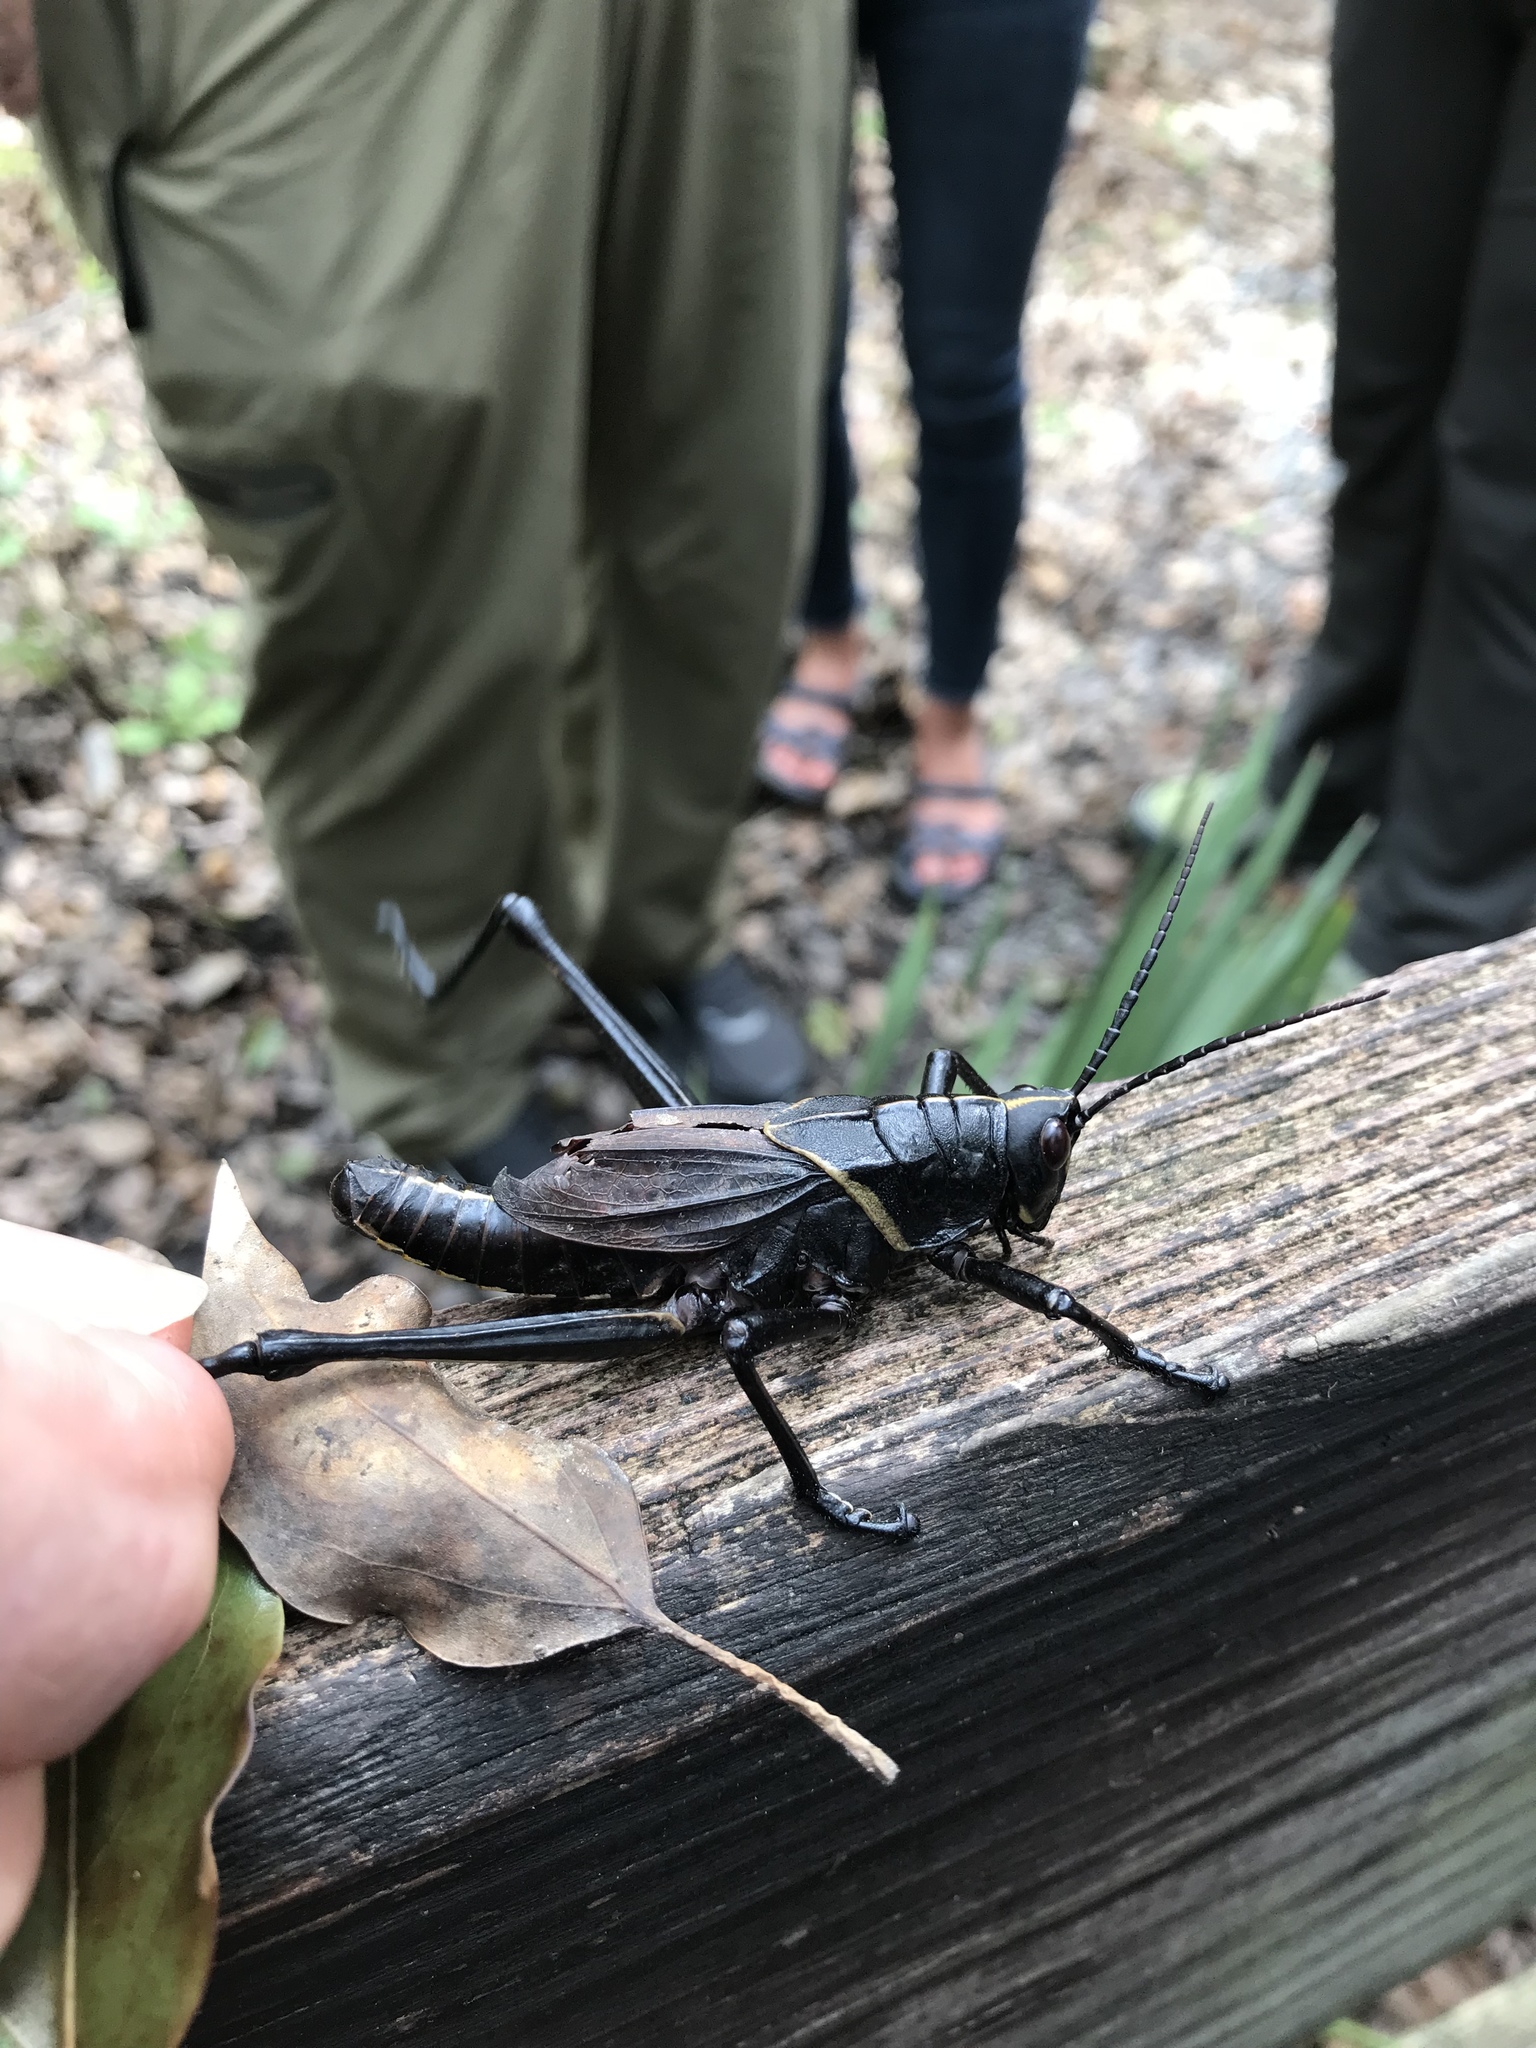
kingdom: Animalia
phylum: Arthropoda
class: Insecta
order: Orthoptera
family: Romaleidae
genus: Romalea
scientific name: Romalea microptera
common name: Eastern lubber grasshopper
